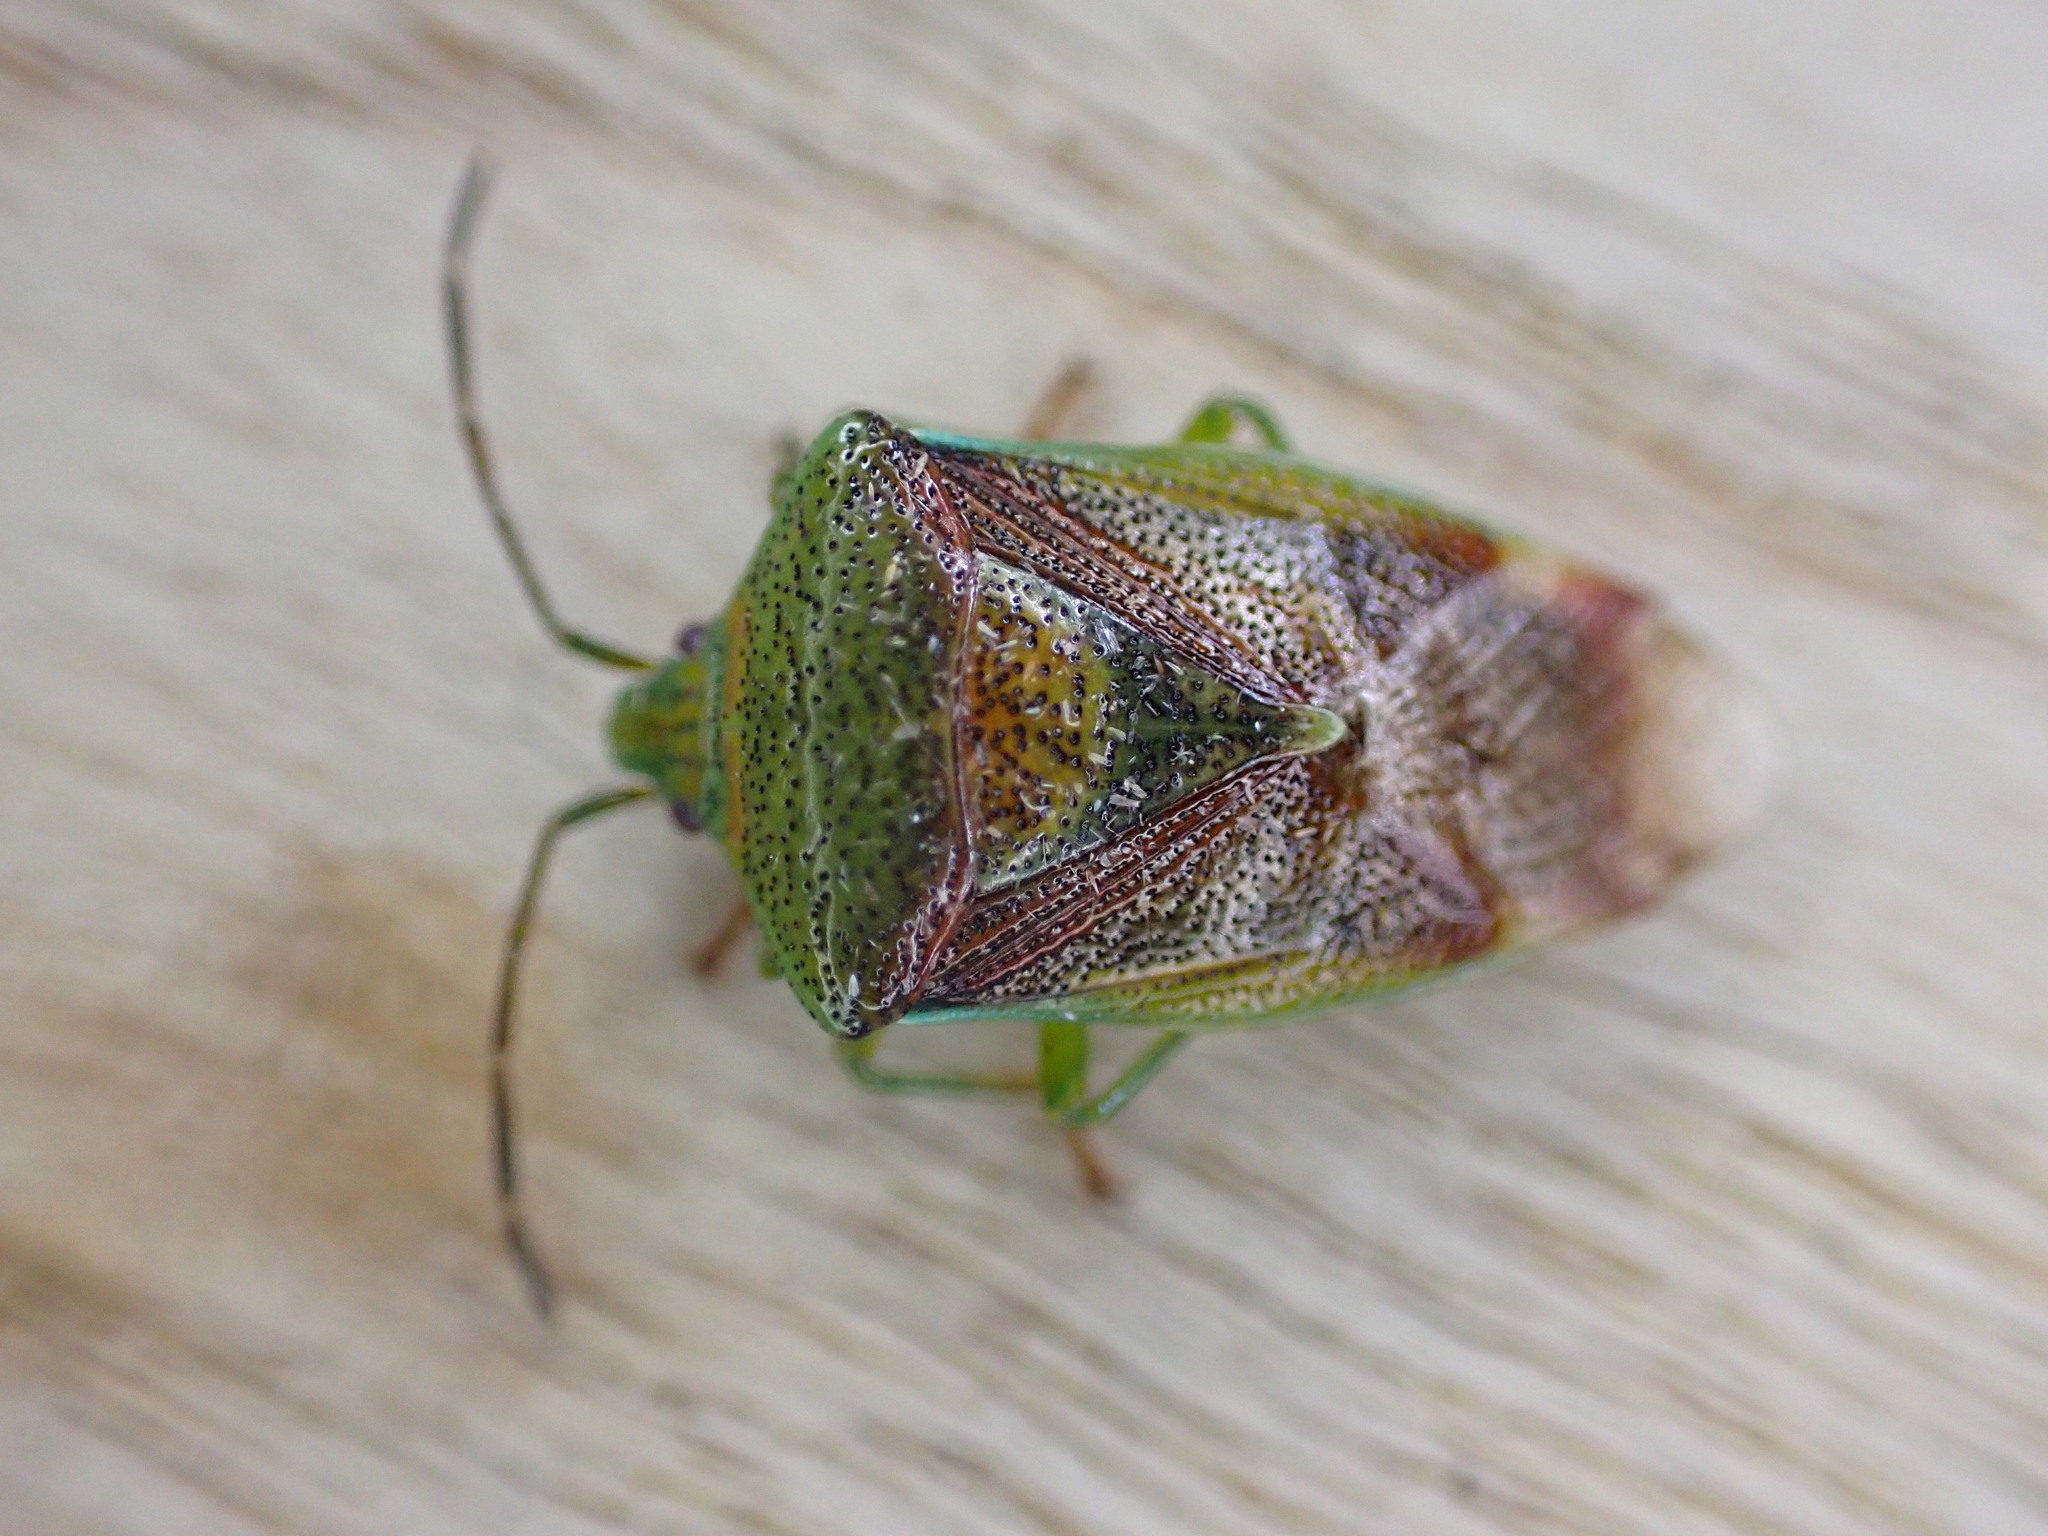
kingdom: Animalia
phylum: Arthropoda
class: Insecta
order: Hemiptera
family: Acanthosomatidae
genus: Elasmostethus
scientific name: Elasmostethus interstinctus
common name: Birch shieldbug
